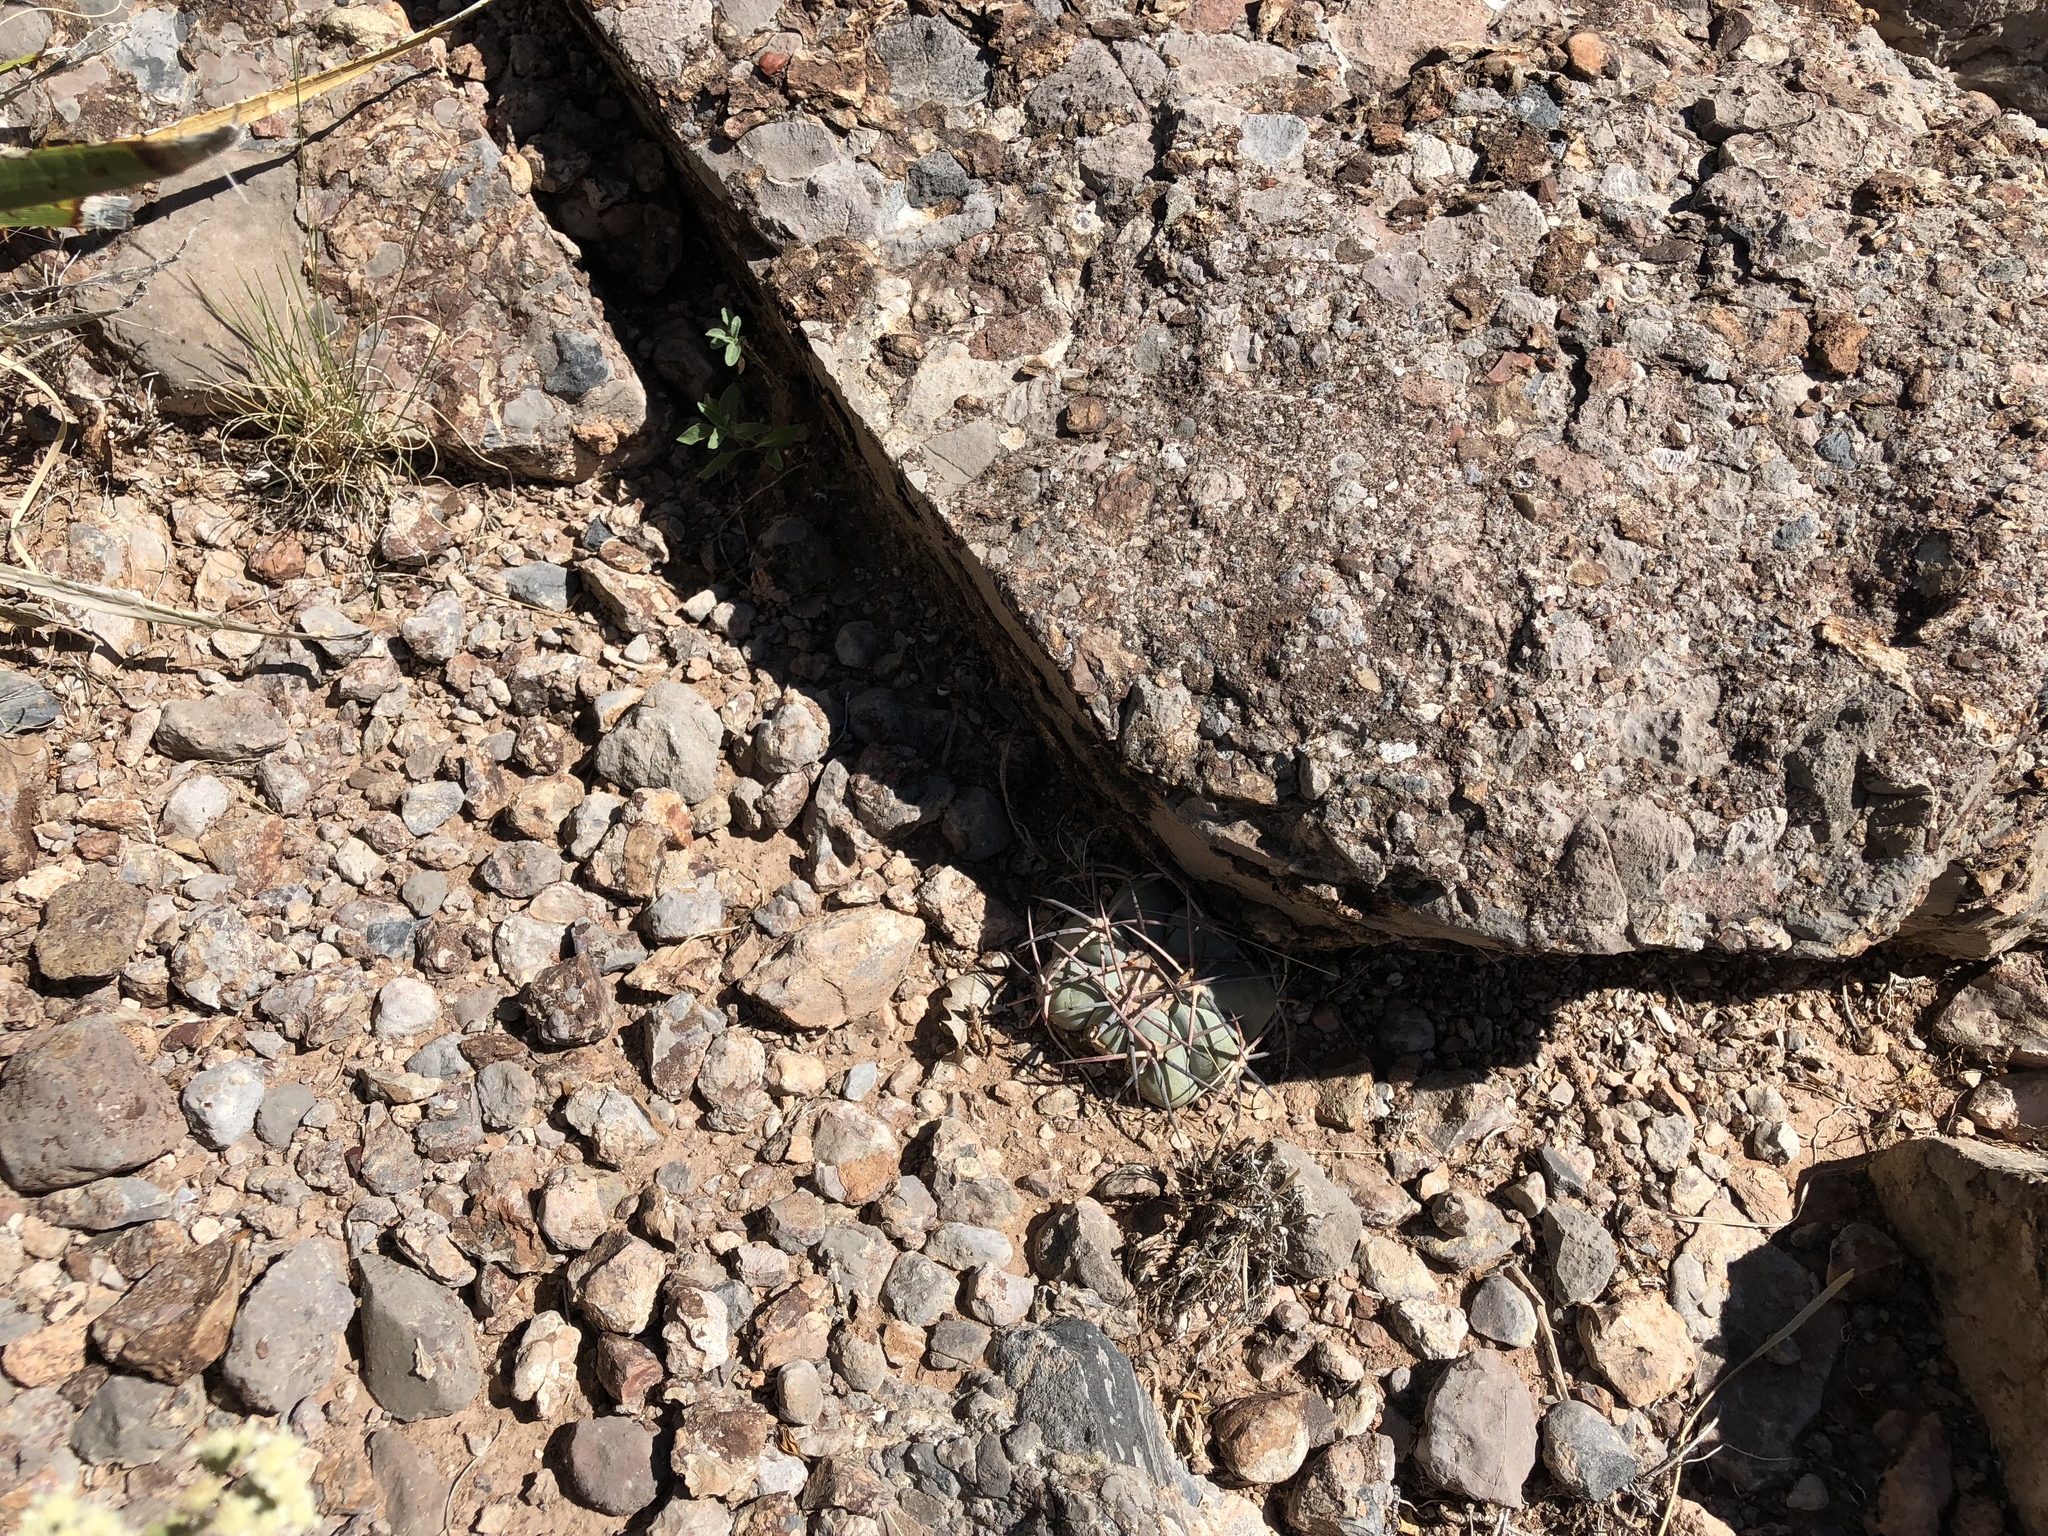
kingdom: Plantae
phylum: Tracheophyta
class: Magnoliopsida
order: Caryophyllales
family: Cactaceae
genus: Echinocactus
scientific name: Echinocactus horizonthalonius
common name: Devilshead
